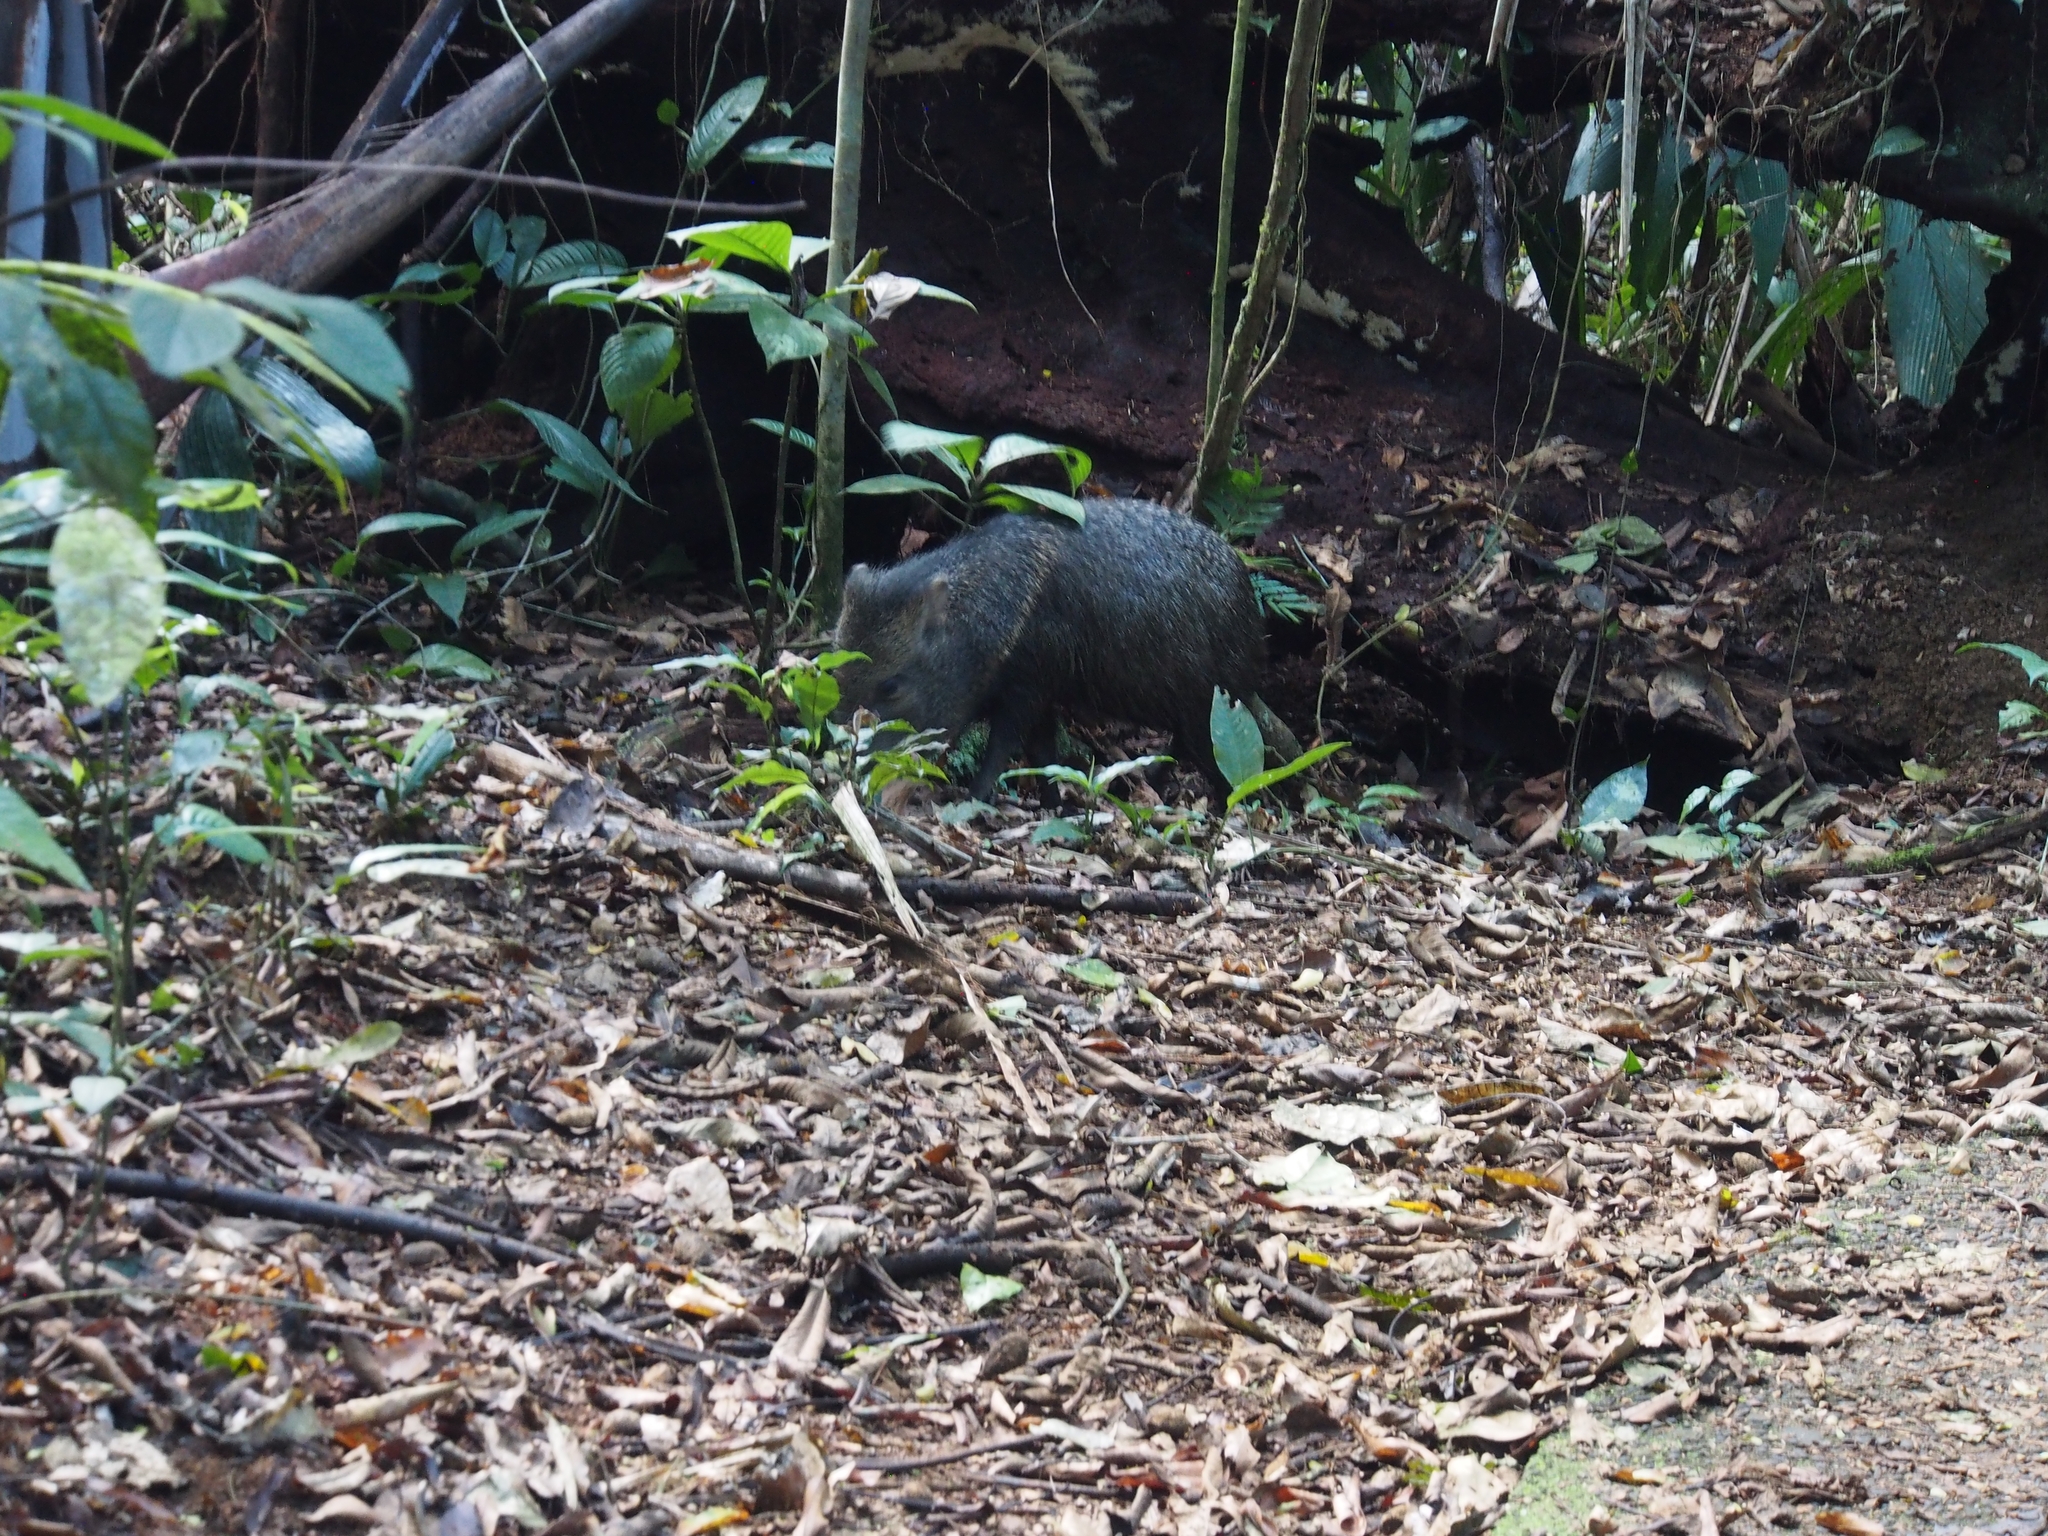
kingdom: Animalia
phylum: Chordata
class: Mammalia
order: Artiodactyla
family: Tayassuidae
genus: Pecari
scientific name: Pecari tajacu
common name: Collared peccary
